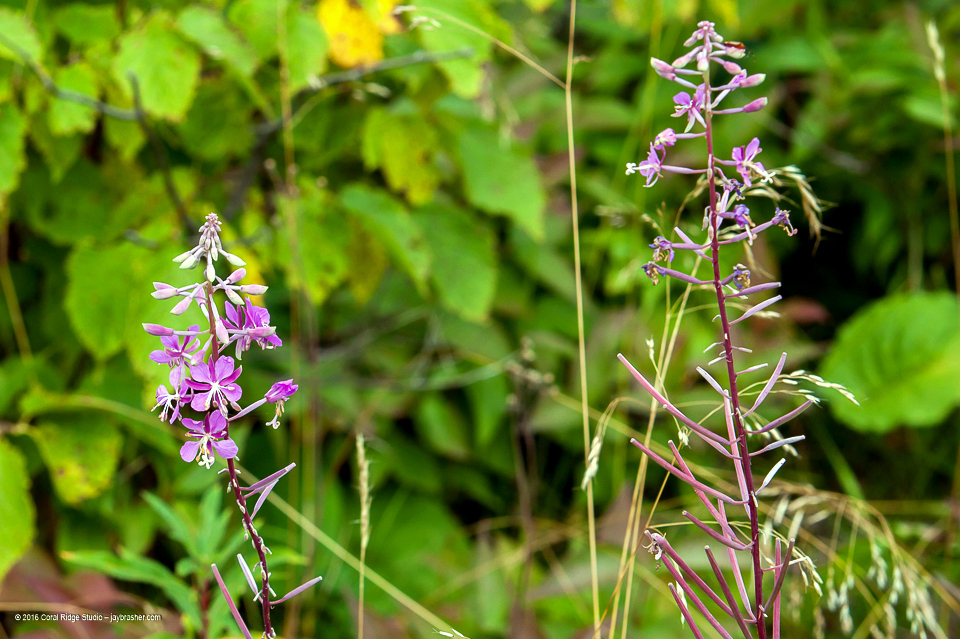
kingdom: Plantae
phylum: Tracheophyta
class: Magnoliopsida
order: Myrtales
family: Onagraceae
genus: Chamaenerion
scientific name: Chamaenerion angustifolium
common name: Fireweed
